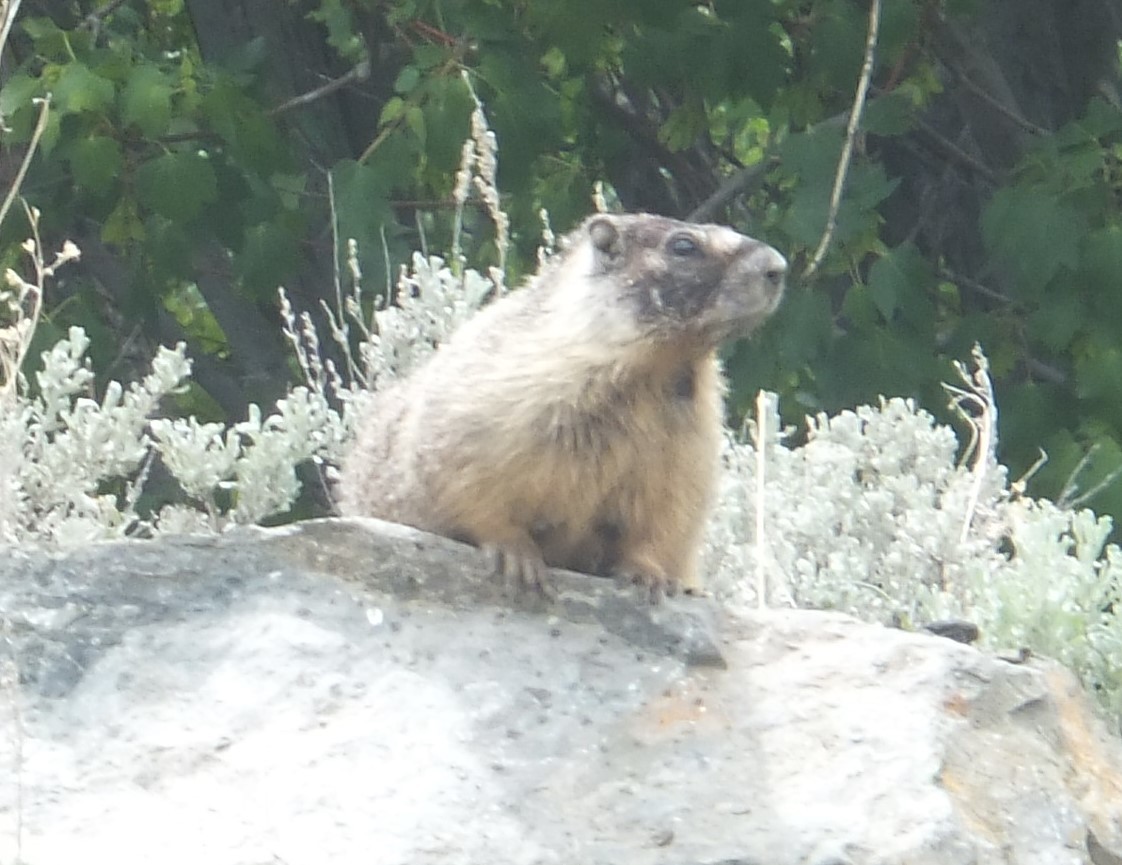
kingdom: Animalia
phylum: Chordata
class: Mammalia
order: Rodentia
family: Sciuridae
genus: Marmota
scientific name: Marmota flaviventris
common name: Yellow-bellied marmot
